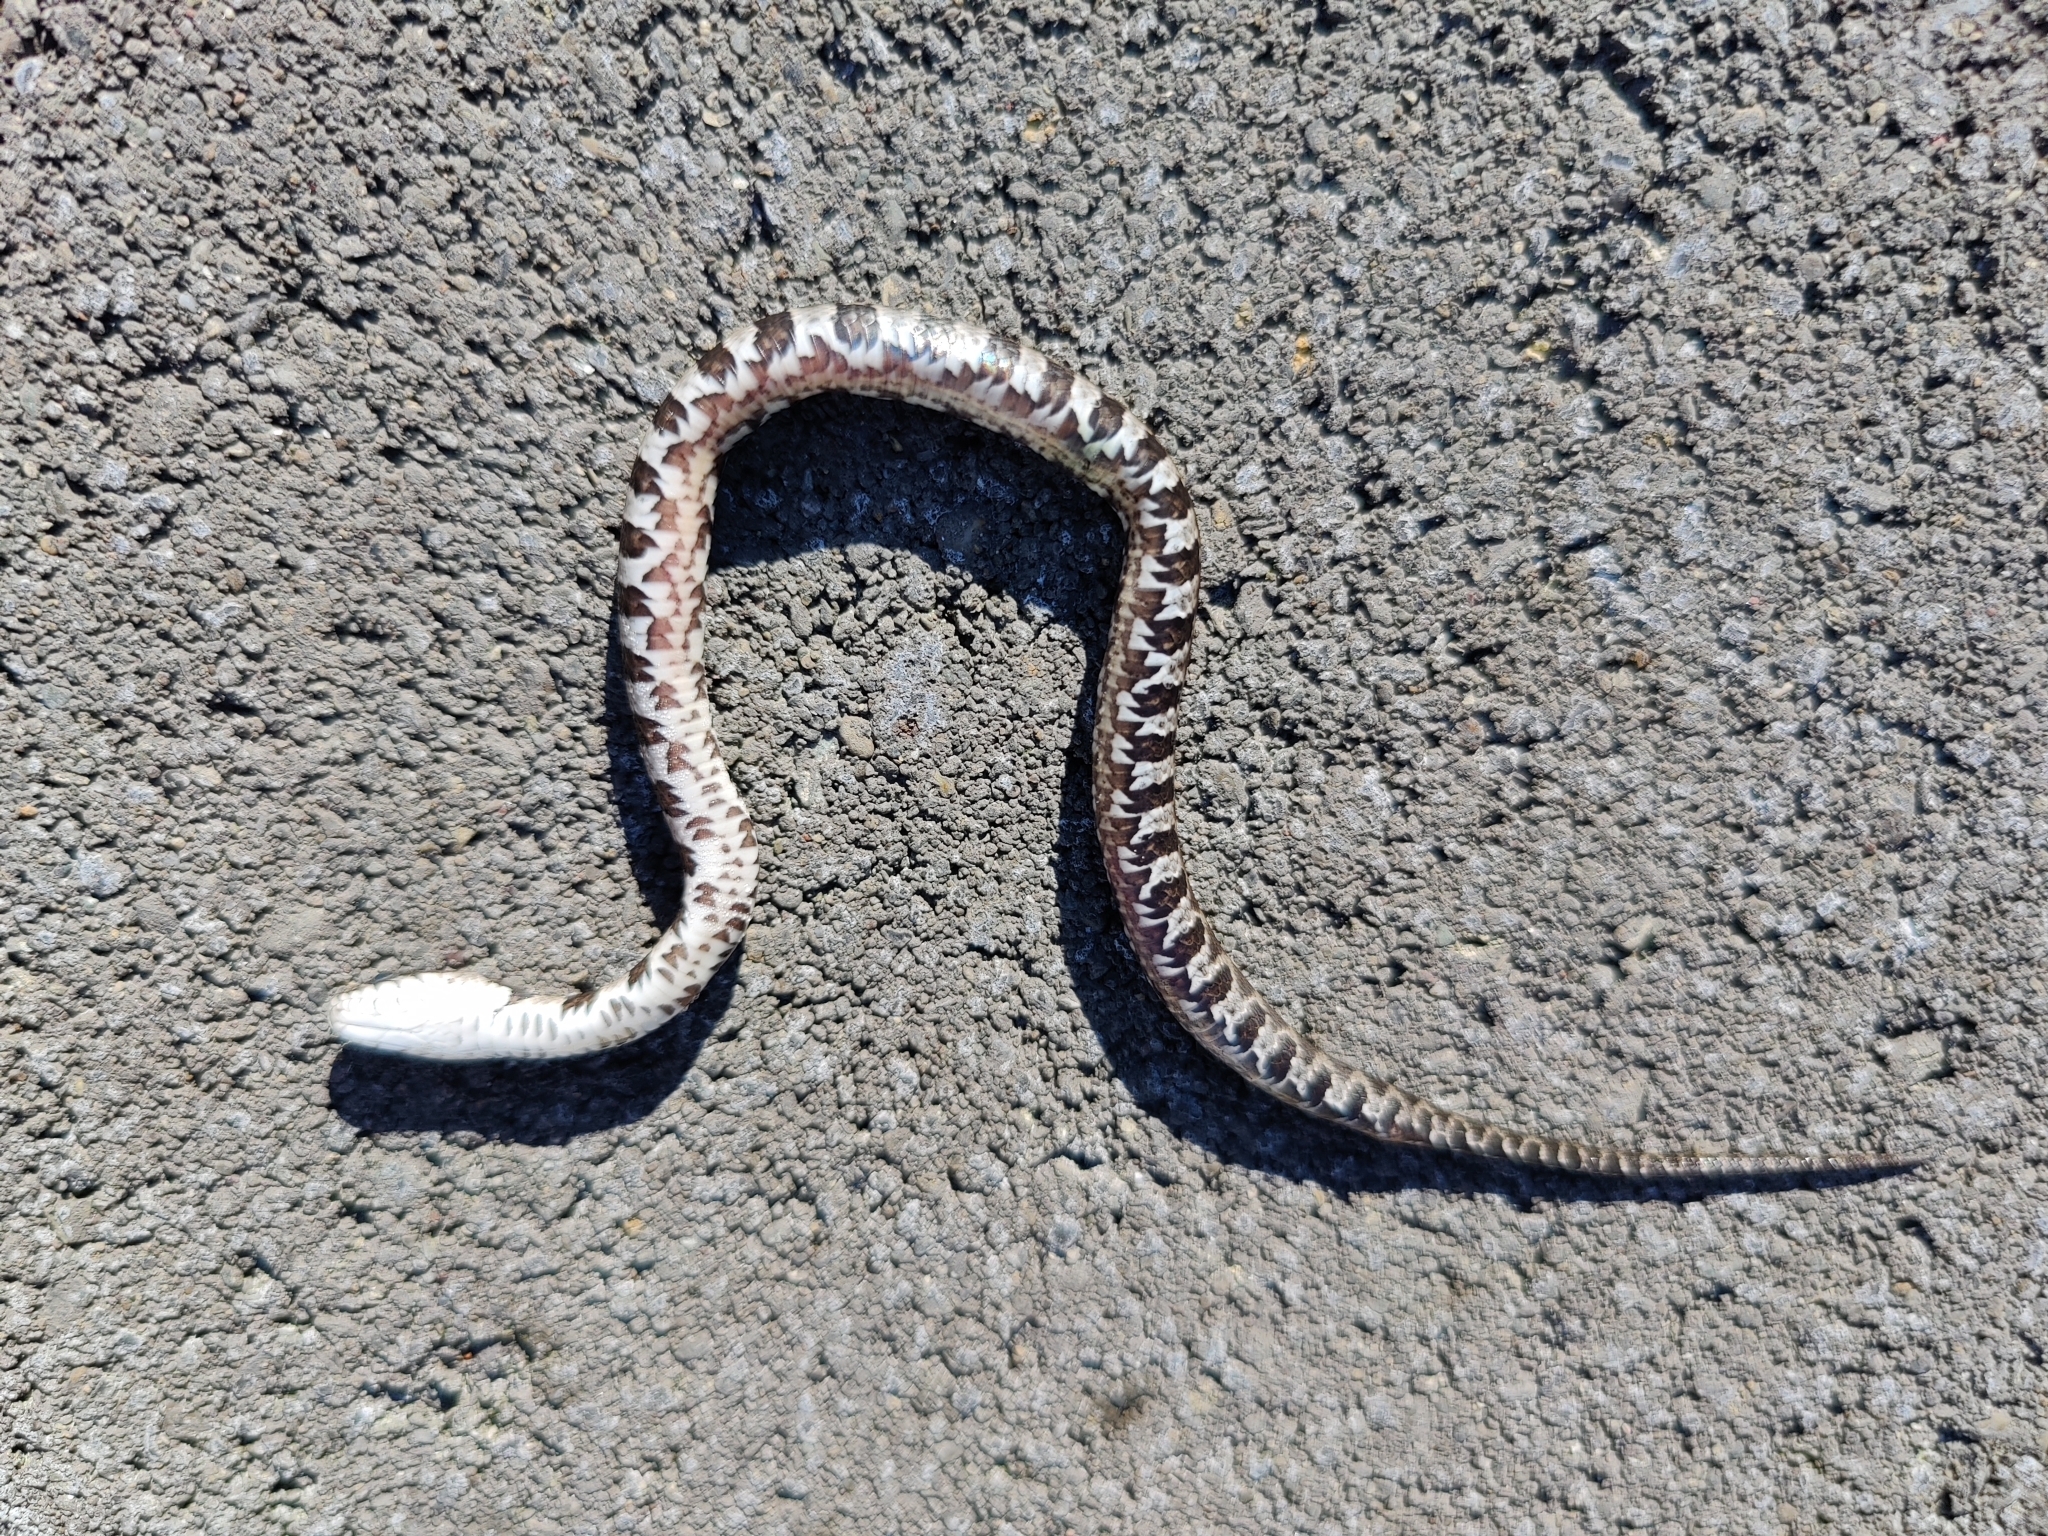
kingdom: Animalia
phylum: Chordata
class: Squamata
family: Colubridae
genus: Nerodia
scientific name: Nerodia sipedon
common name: Northern water snake
